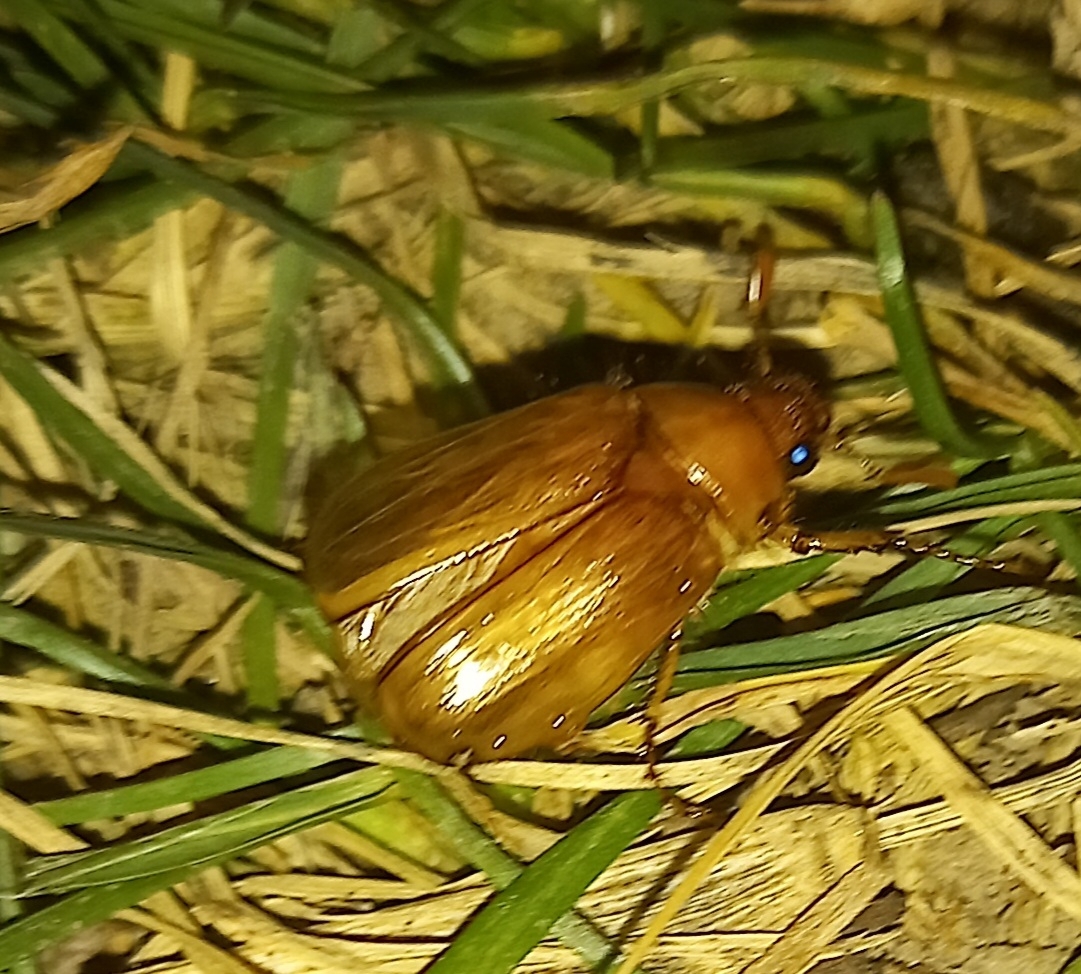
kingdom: Animalia
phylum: Arthropoda
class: Insecta
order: Coleoptera
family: Scarabaeidae
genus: Amphimallon
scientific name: Amphimallon solstitiale
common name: Summer chafer
